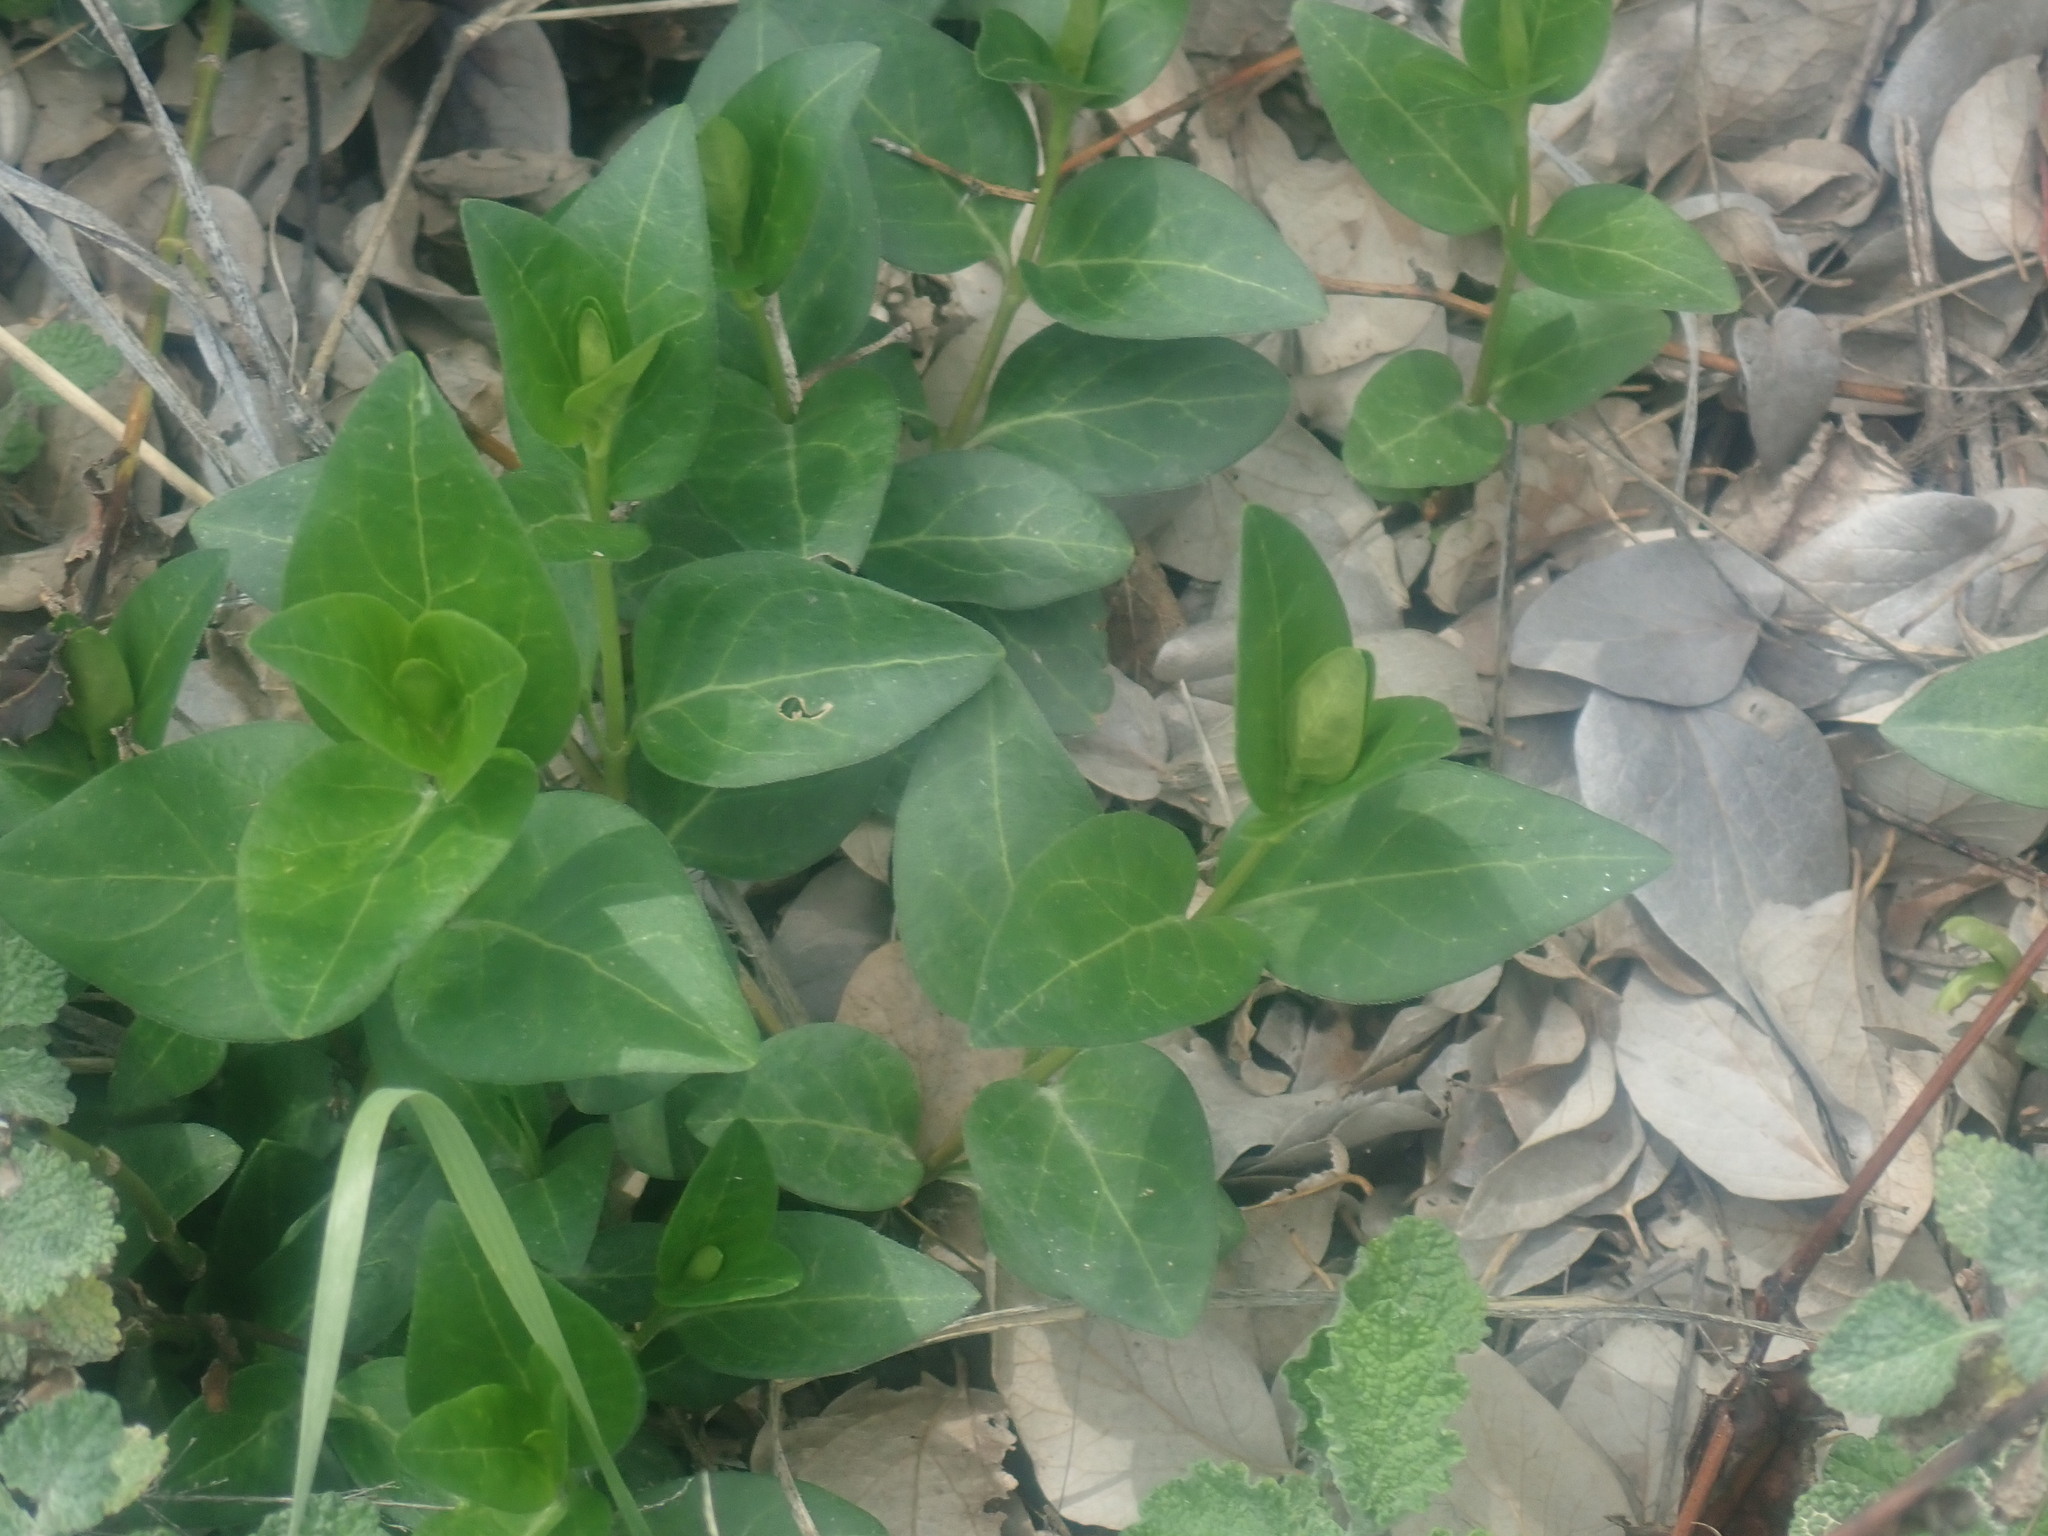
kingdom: Plantae
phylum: Tracheophyta
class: Magnoliopsida
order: Gentianales
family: Apocynaceae
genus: Vinca
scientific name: Vinca major
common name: Greater periwinkle
